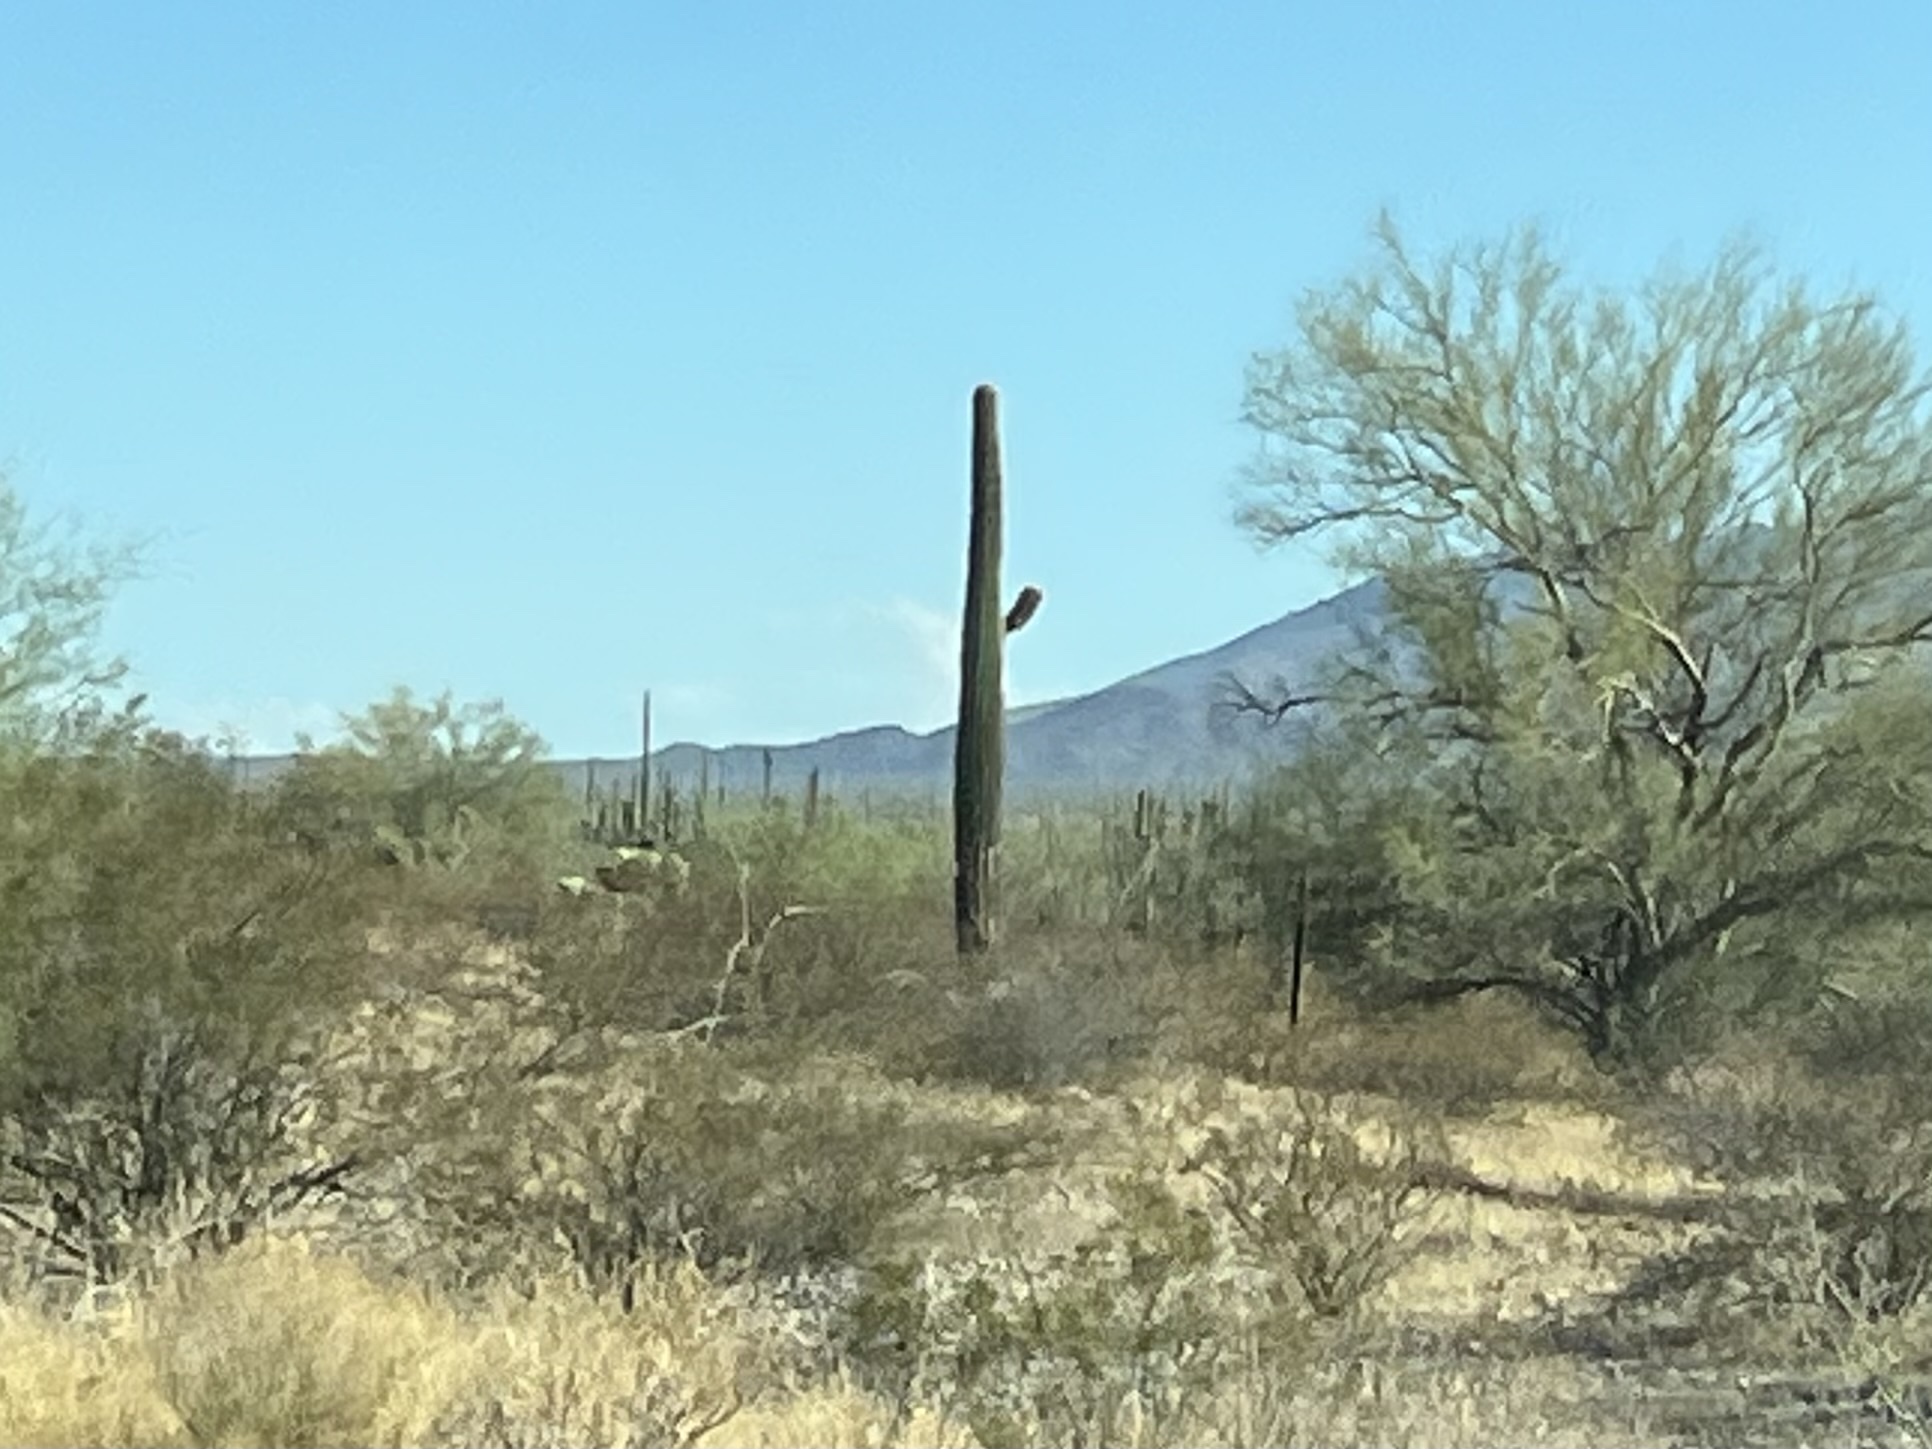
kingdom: Plantae
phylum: Tracheophyta
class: Magnoliopsida
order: Caryophyllales
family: Cactaceae
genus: Carnegiea
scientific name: Carnegiea gigantea
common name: Saguaro
